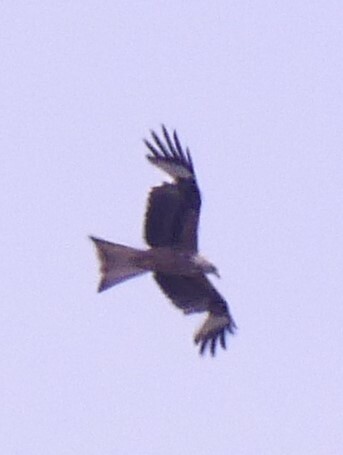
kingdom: Animalia
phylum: Chordata
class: Aves
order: Accipitriformes
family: Accipitridae
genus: Milvus
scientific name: Milvus milvus
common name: Red kite
